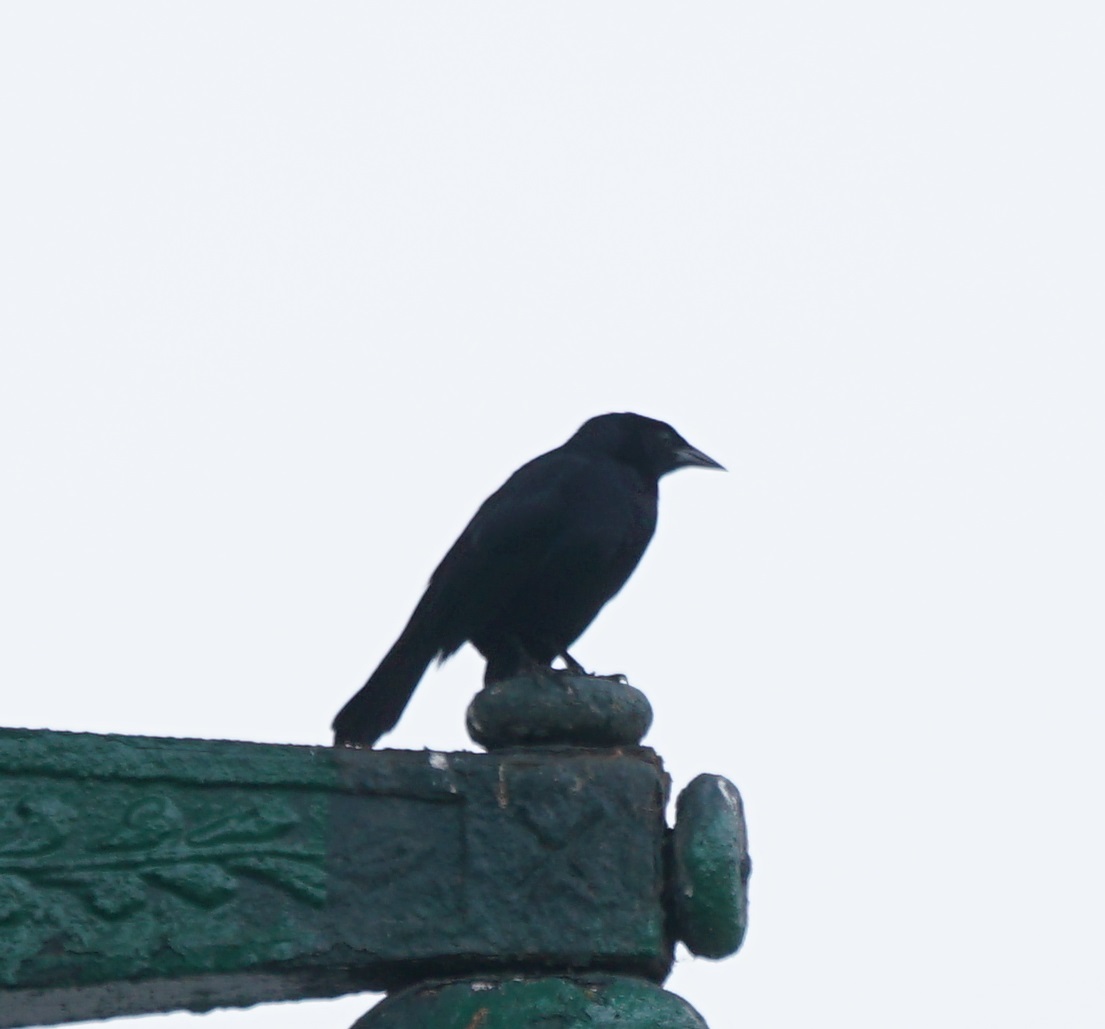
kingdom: Animalia
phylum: Chordata
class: Aves
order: Passeriformes
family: Icteridae
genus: Dives
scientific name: Dives warczewiczi
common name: Scrub blackbird
